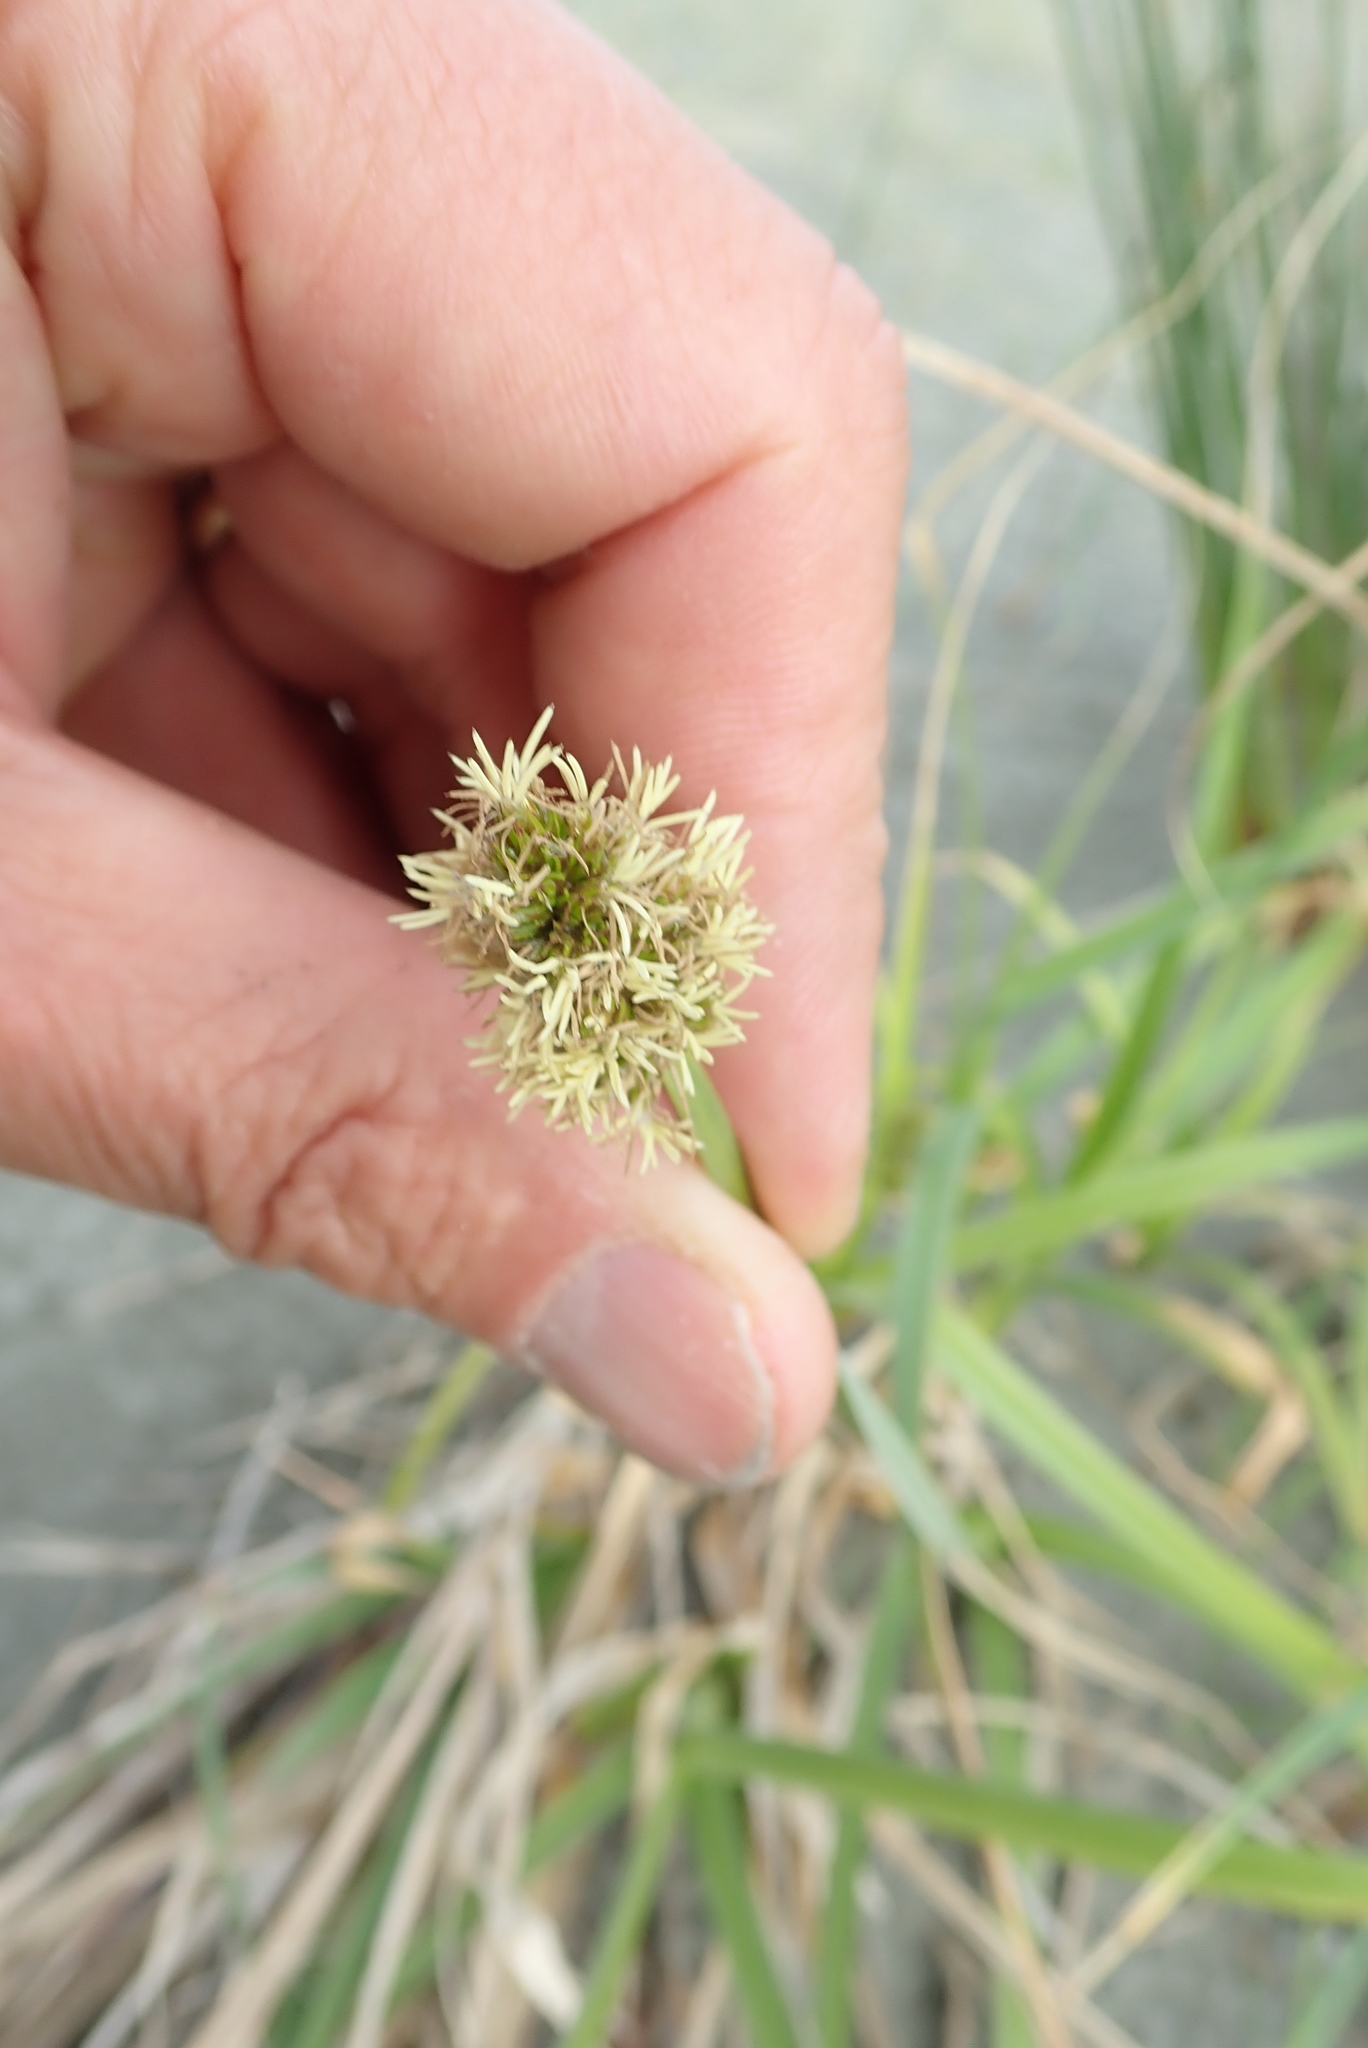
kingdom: Plantae
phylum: Tracheophyta
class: Liliopsida
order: Poales
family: Cyperaceae
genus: Carex
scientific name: Carex otrubae
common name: False fox-sedge
